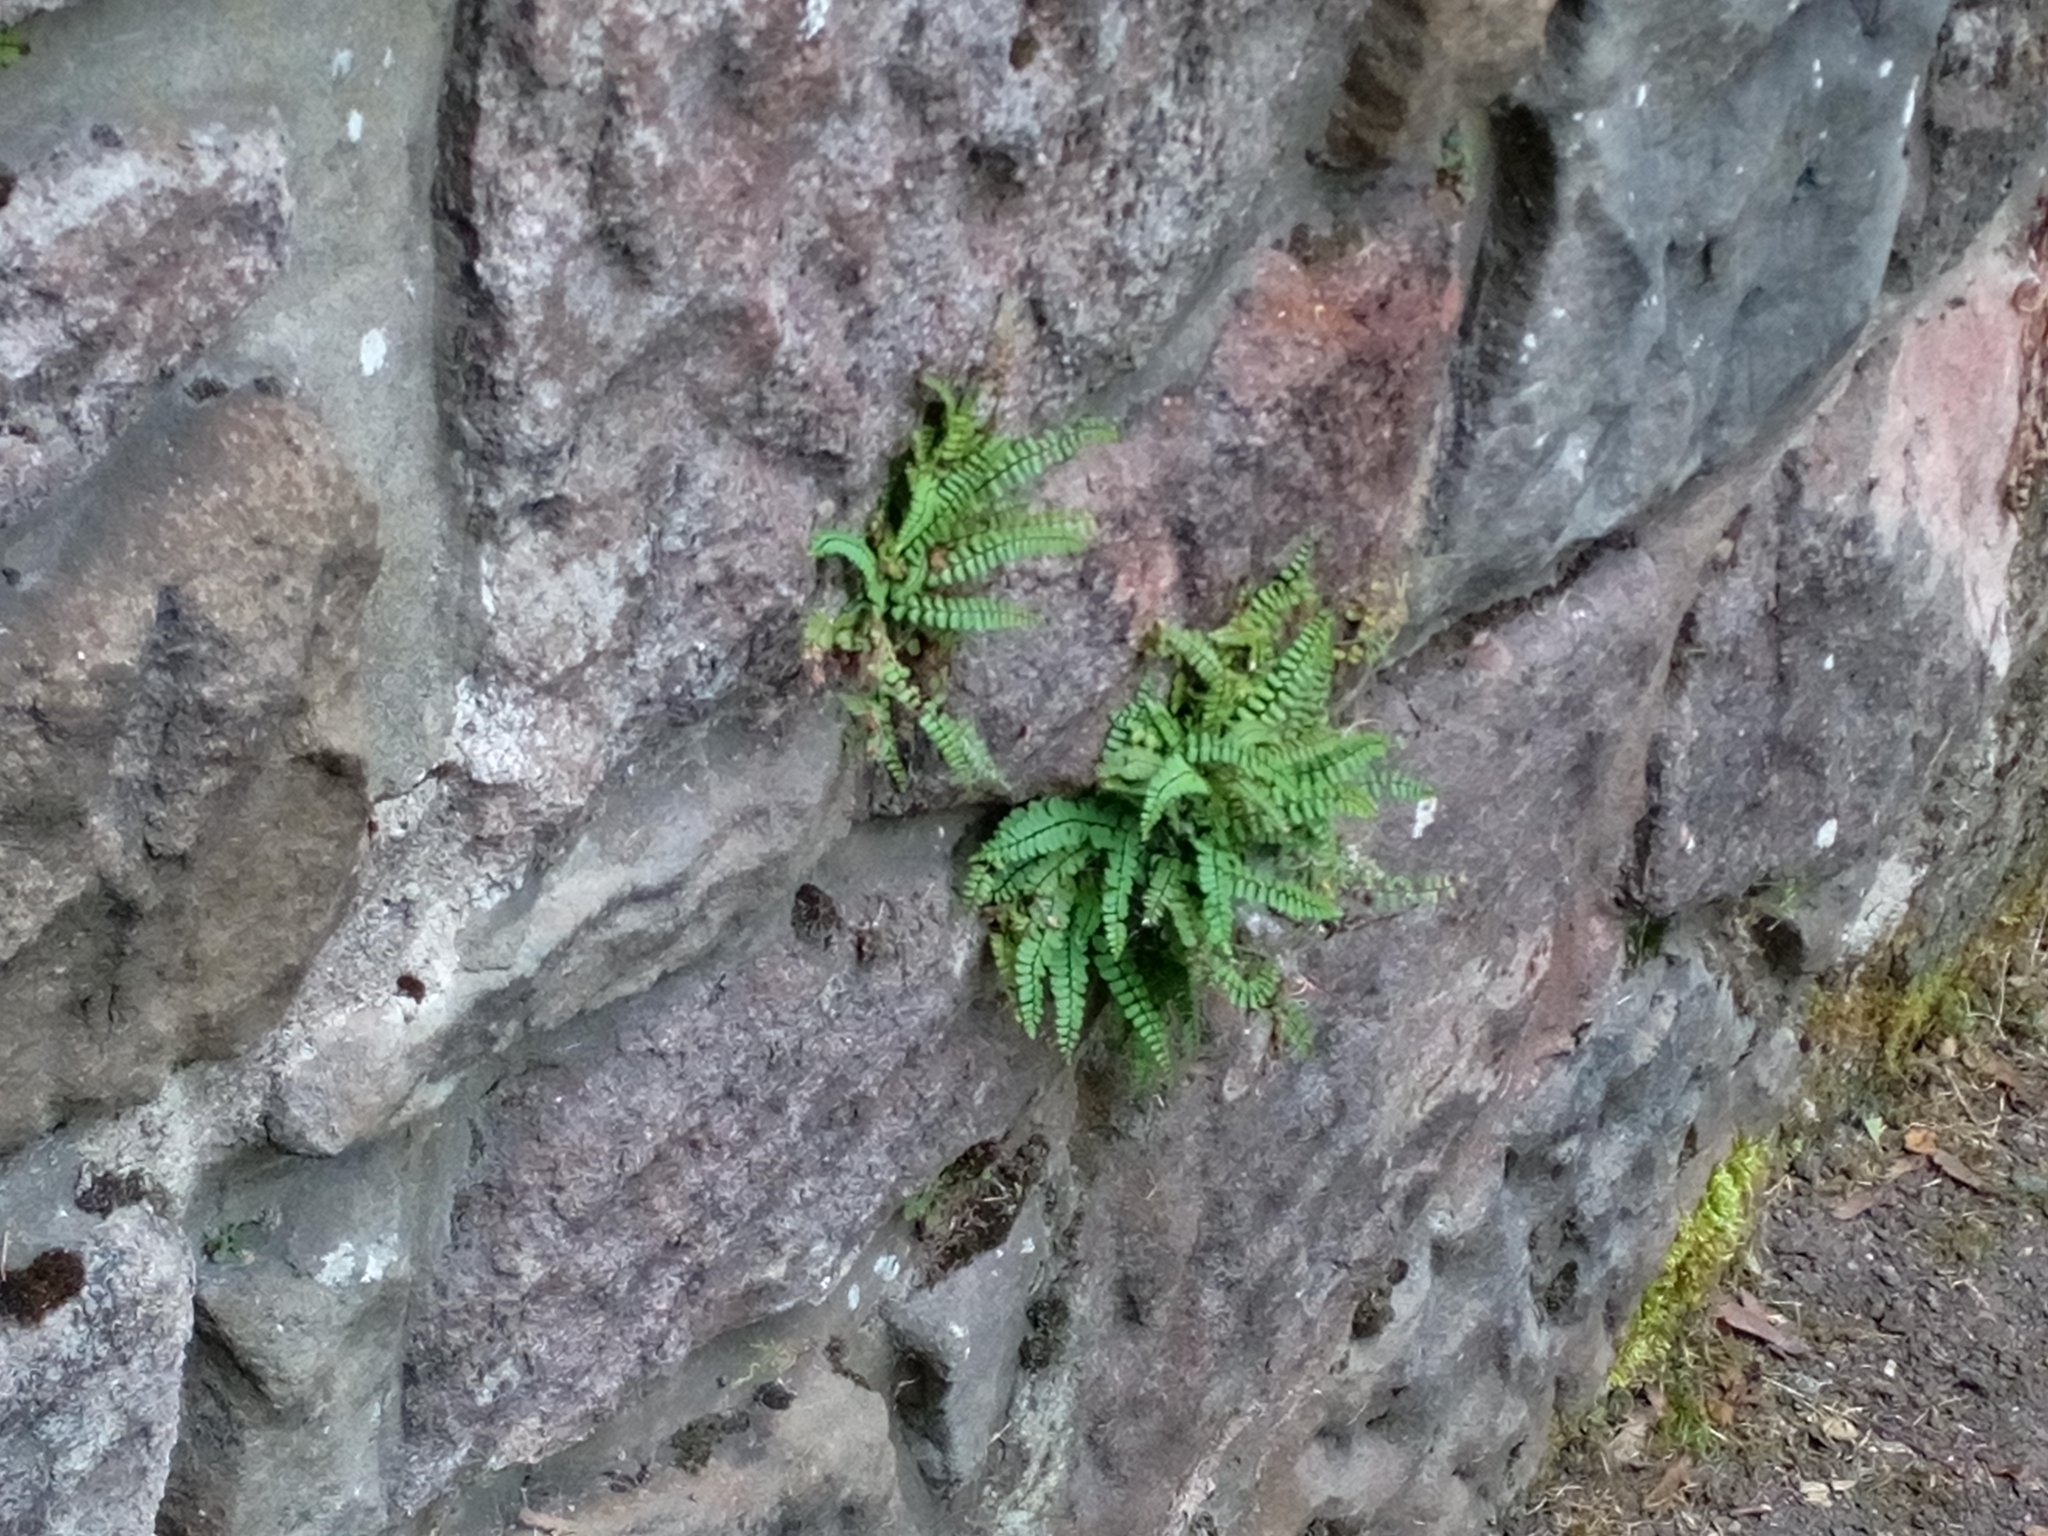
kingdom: Plantae
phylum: Tracheophyta
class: Polypodiopsida
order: Polypodiales
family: Aspleniaceae
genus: Asplenium
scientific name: Asplenium trichomanes
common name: Maidenhair spleenwort
